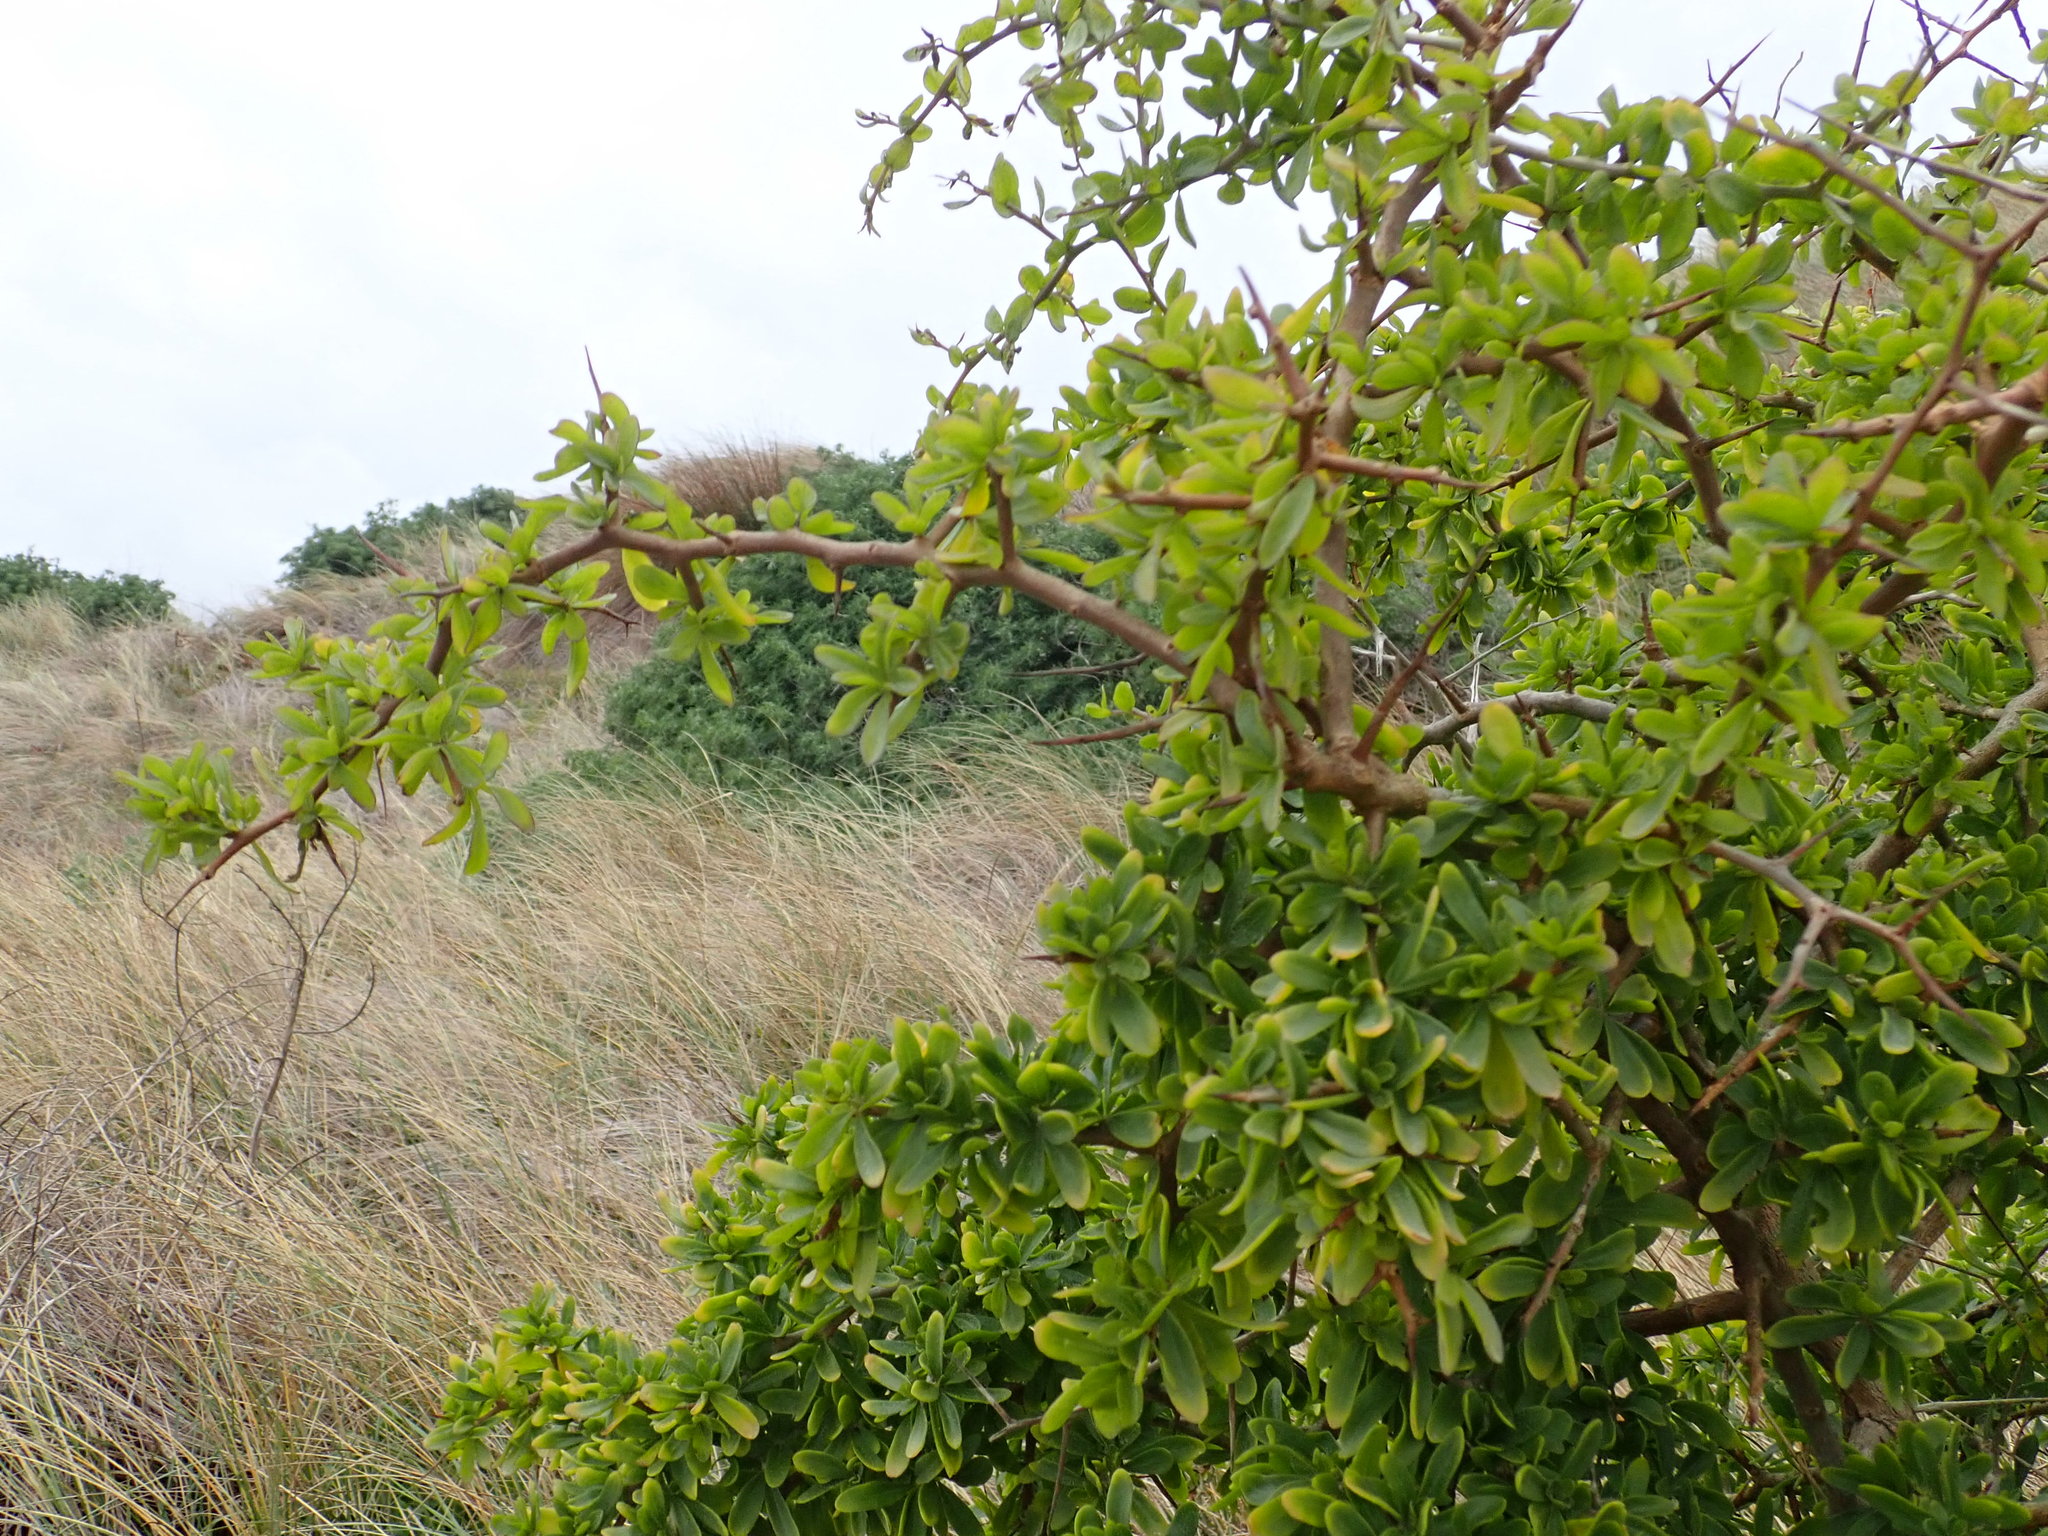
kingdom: Plantae
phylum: Tracheophyta
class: Magnoliopsida
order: Solanales
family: Solanaceae
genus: Lycium
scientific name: Lycium ferocissimum
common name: African boxthorn
